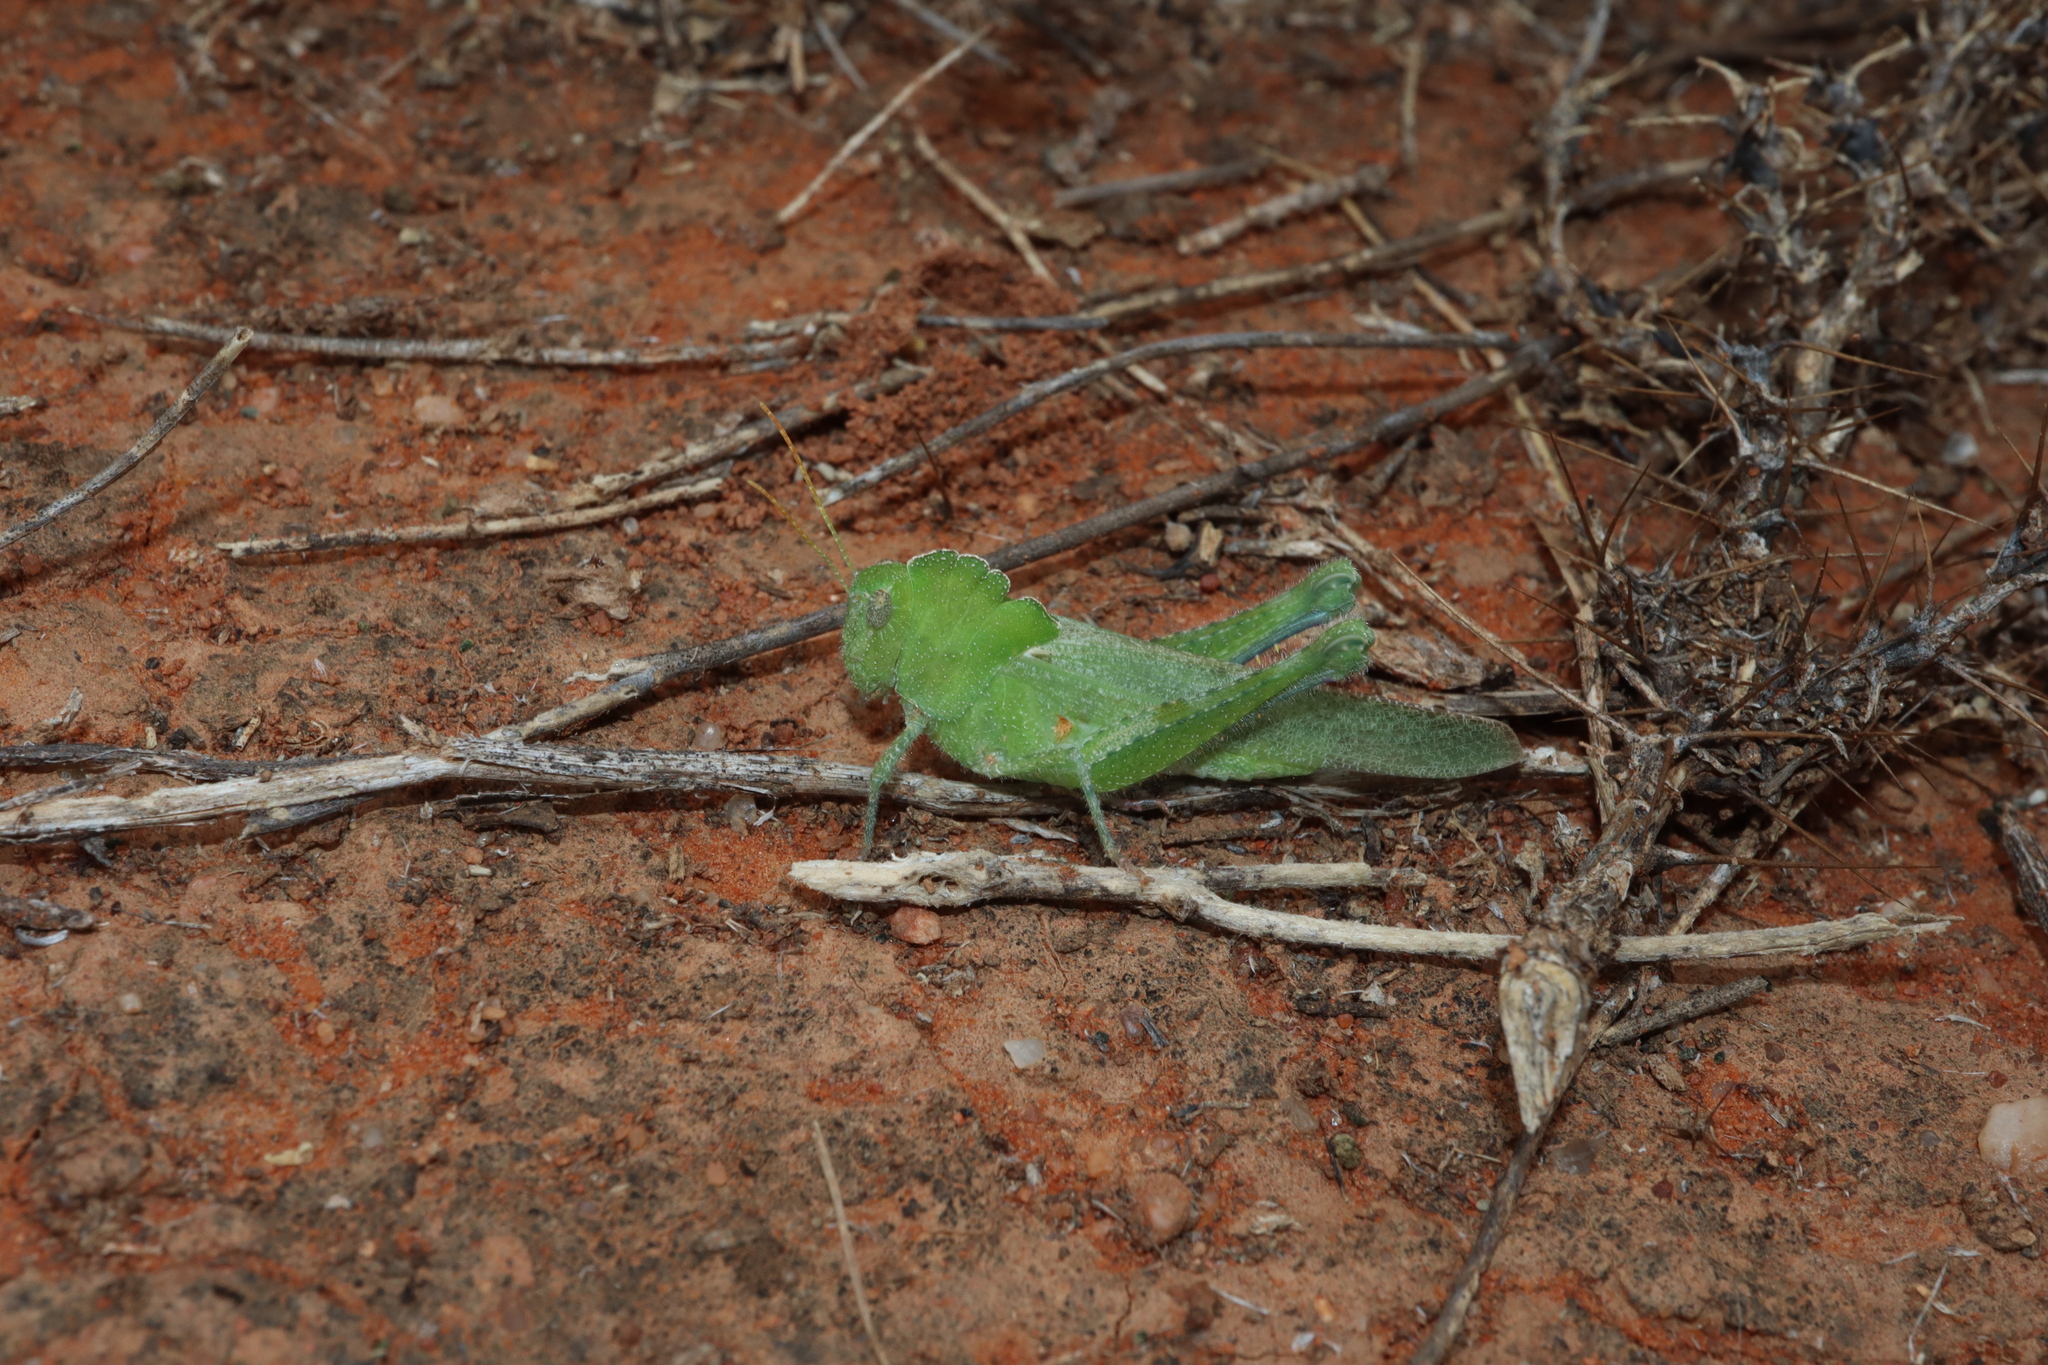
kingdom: Animalia
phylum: Arthropoda
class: Insecta
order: Orthoptera
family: Acrididae
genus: Ecphantus
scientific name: Ecphantus quadrilobus
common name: Crested tooth grinder
